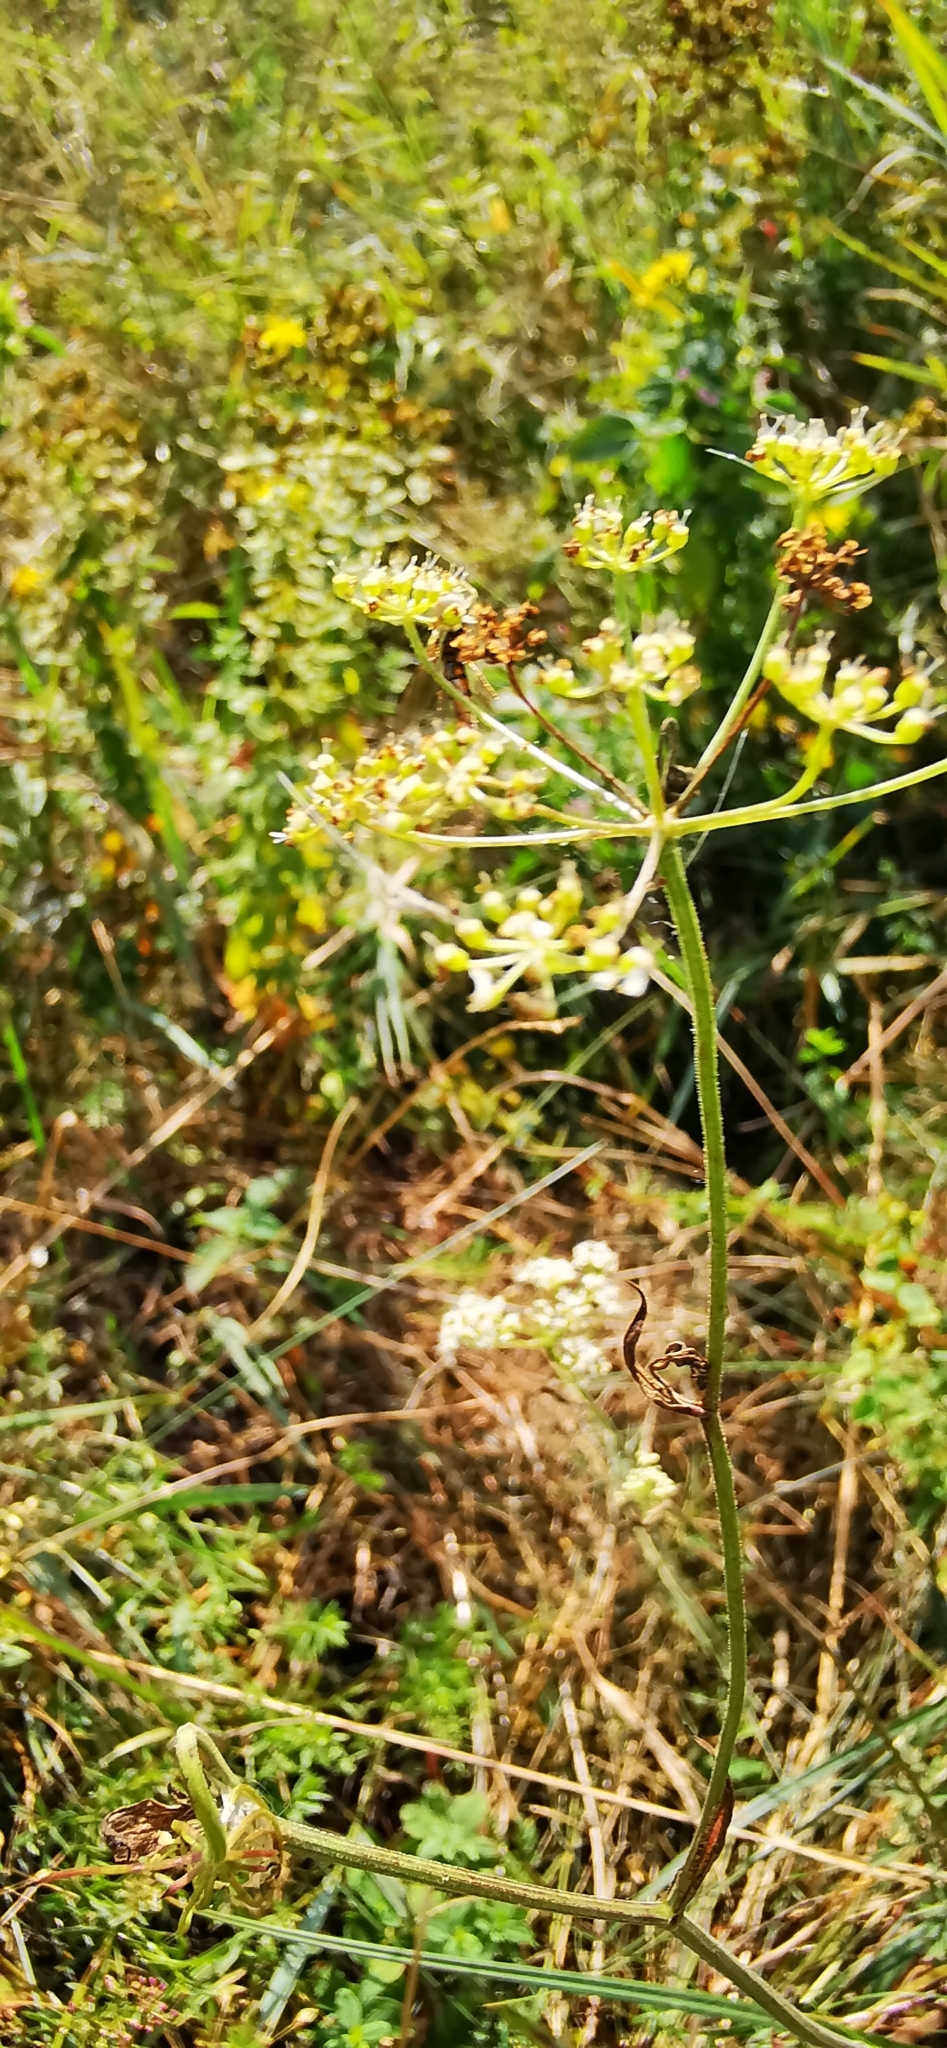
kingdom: Plantae
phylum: Tracheophyta
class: Magnoliopsida
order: Apiales
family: Apiaceae
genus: Pimpinella
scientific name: Pimpinella saxifraga
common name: Burnet-saxifrage
